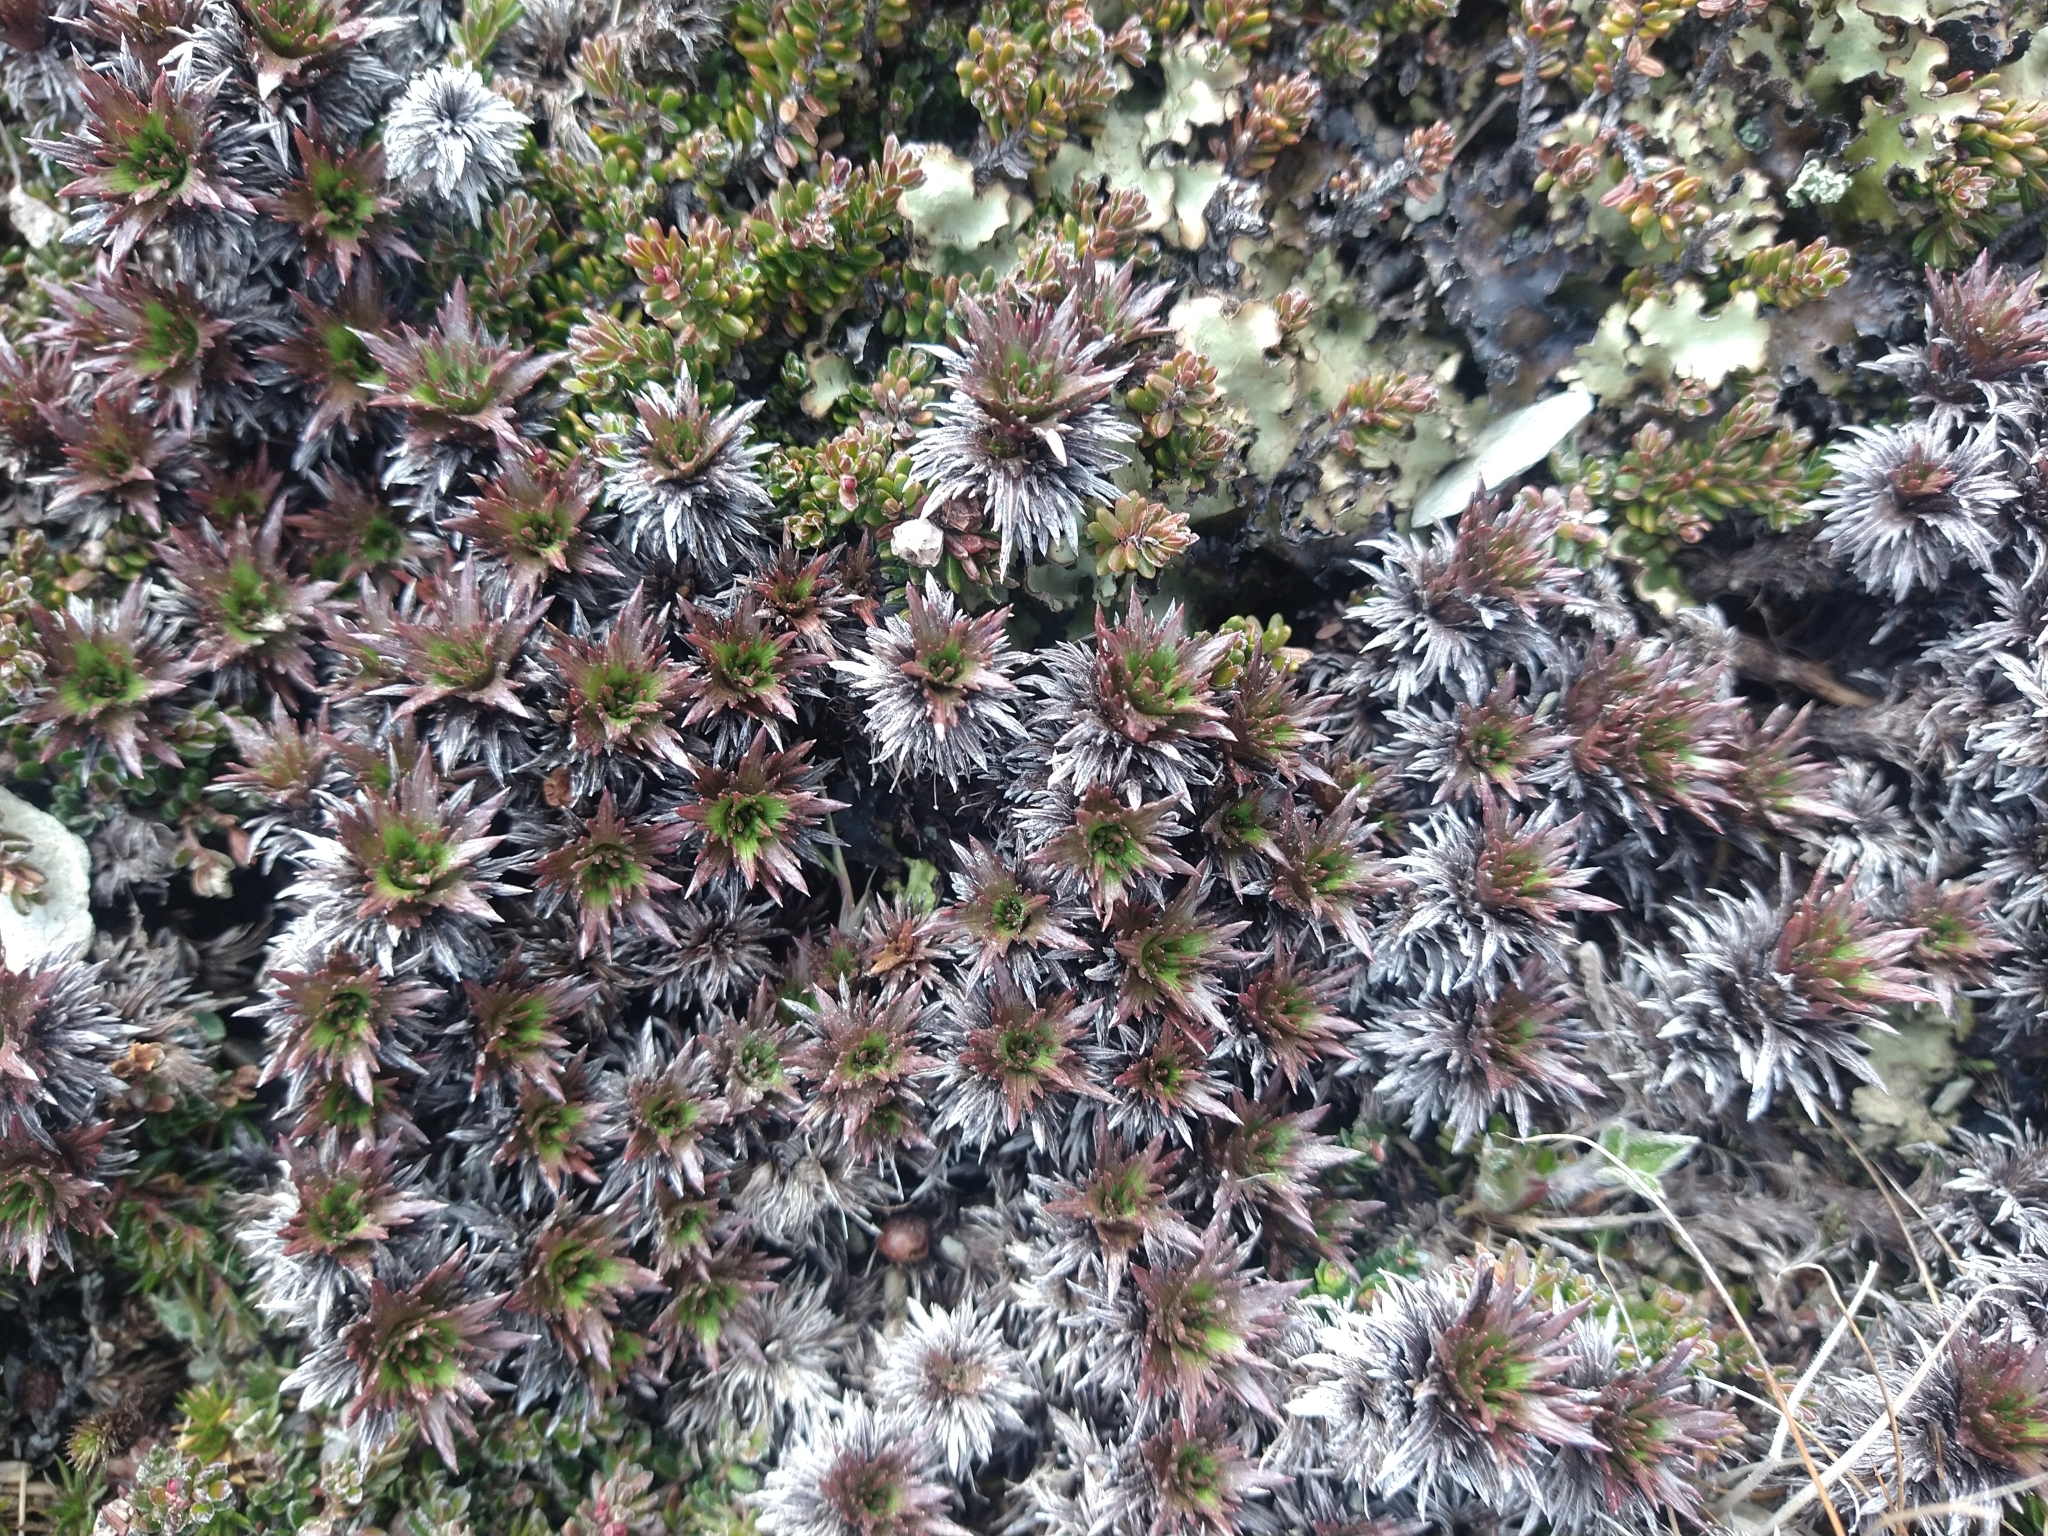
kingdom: Plantae
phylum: Tracheophyta
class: Magnoliopsida
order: Asterales
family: Asteraceae
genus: Nassauvia
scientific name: Nassauvia magellanica
